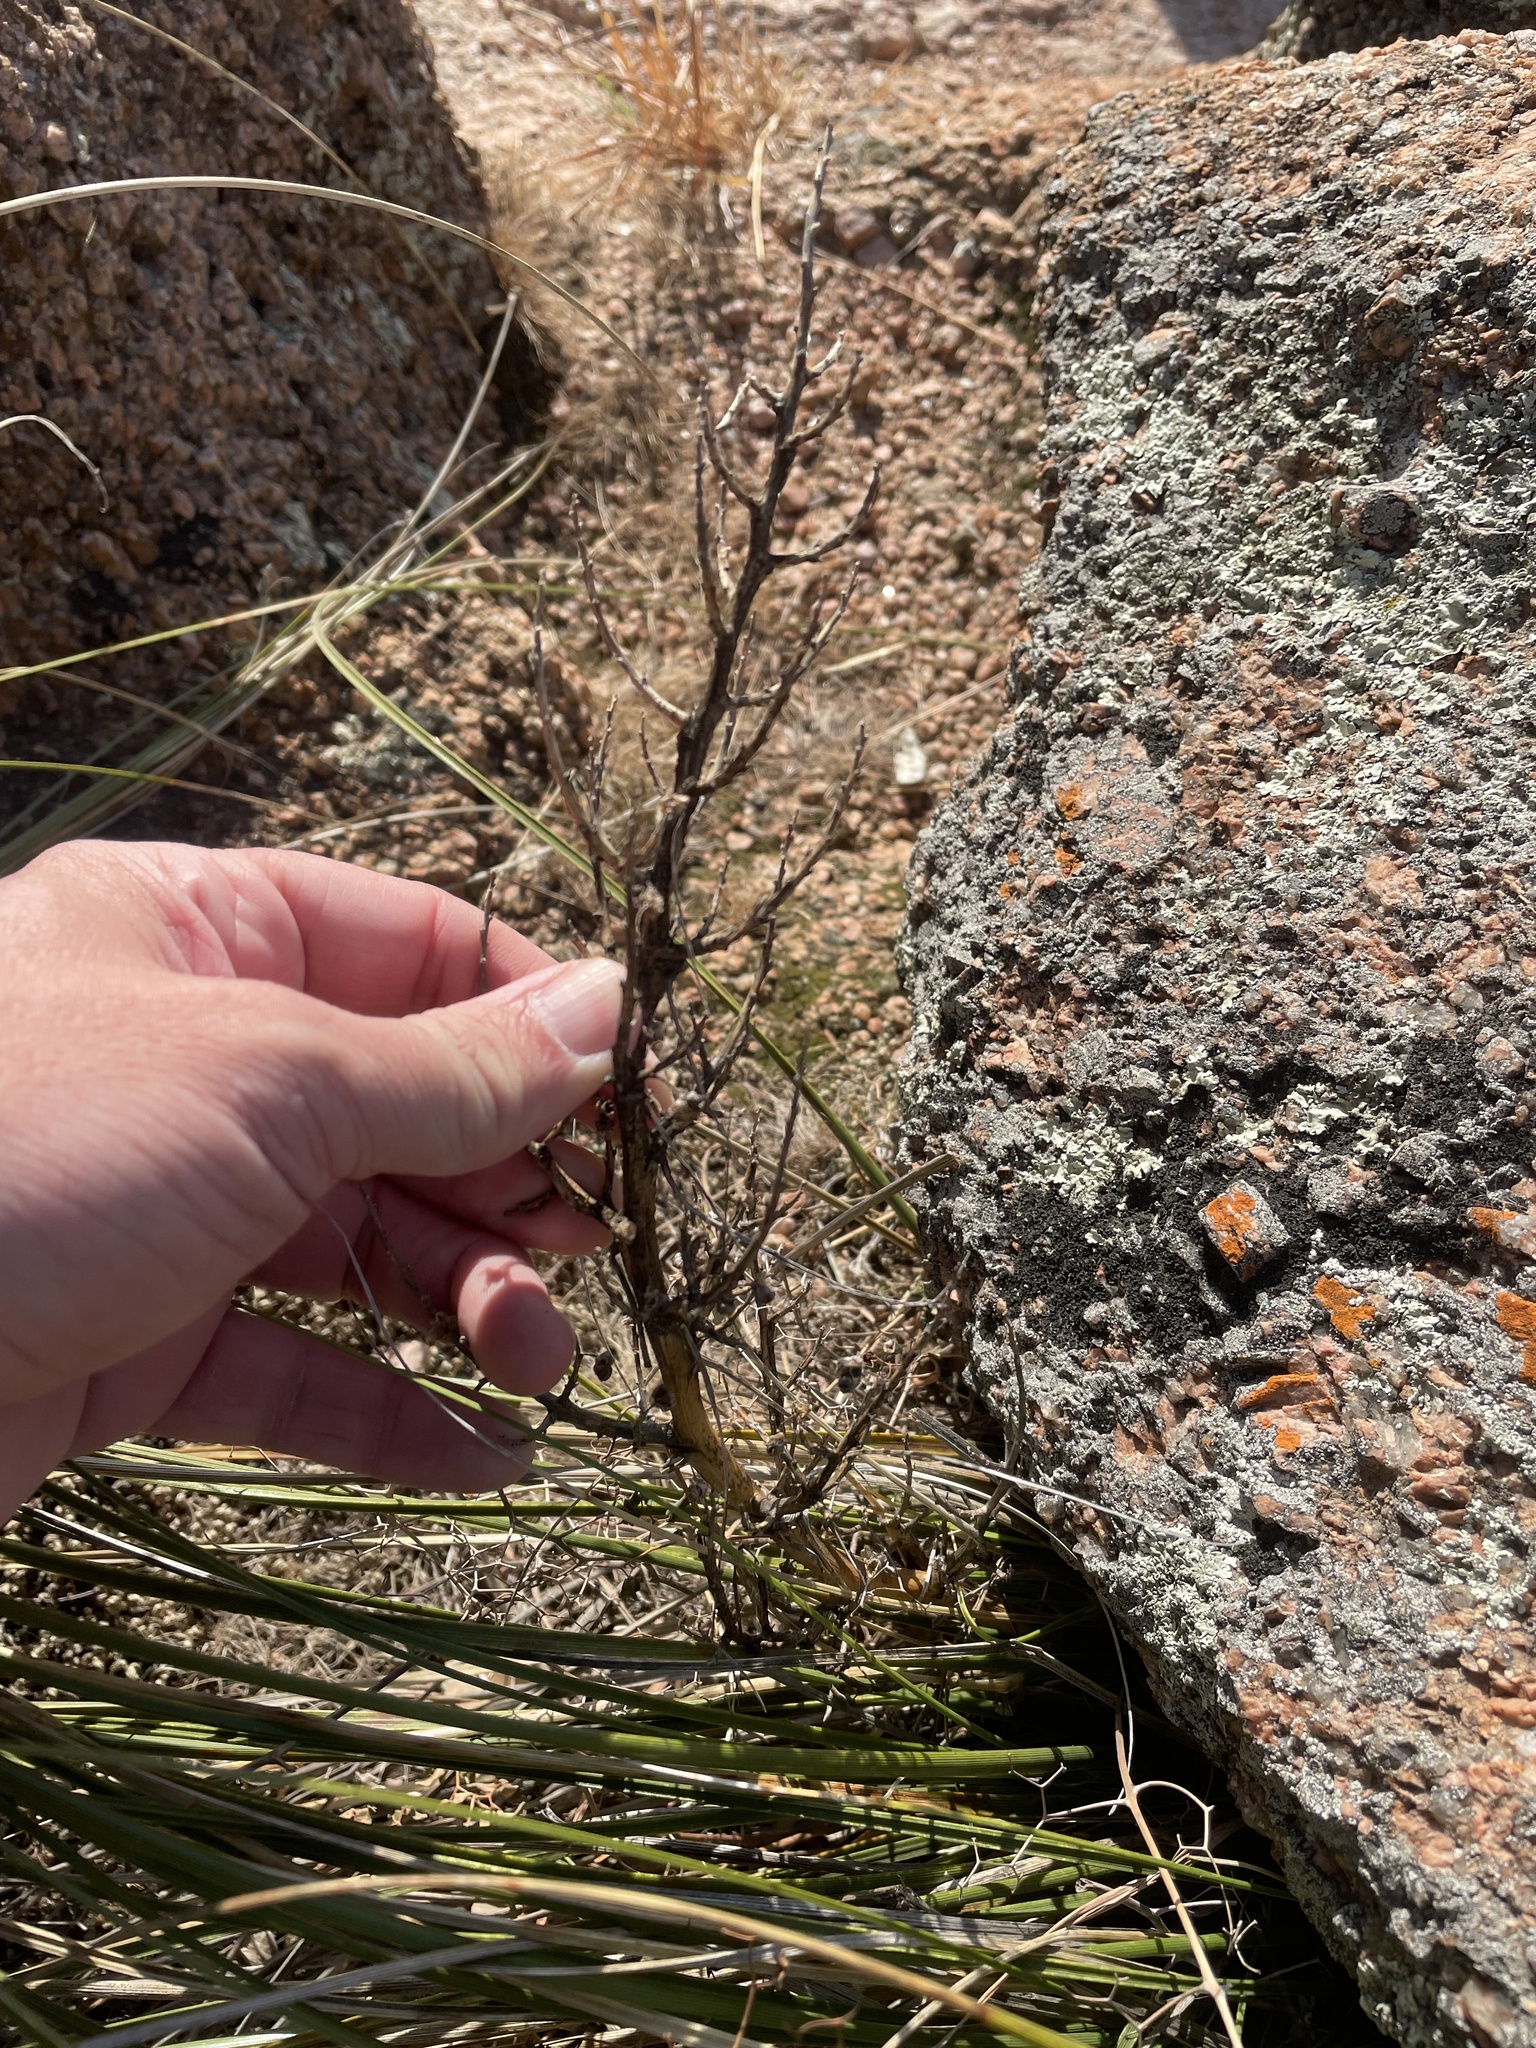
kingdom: Plantae
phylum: Tracheophyta
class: Liliopsida
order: Asparagales
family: Asparagaceae
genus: Nolina
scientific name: Nolina texana
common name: Texas sacahuiste
